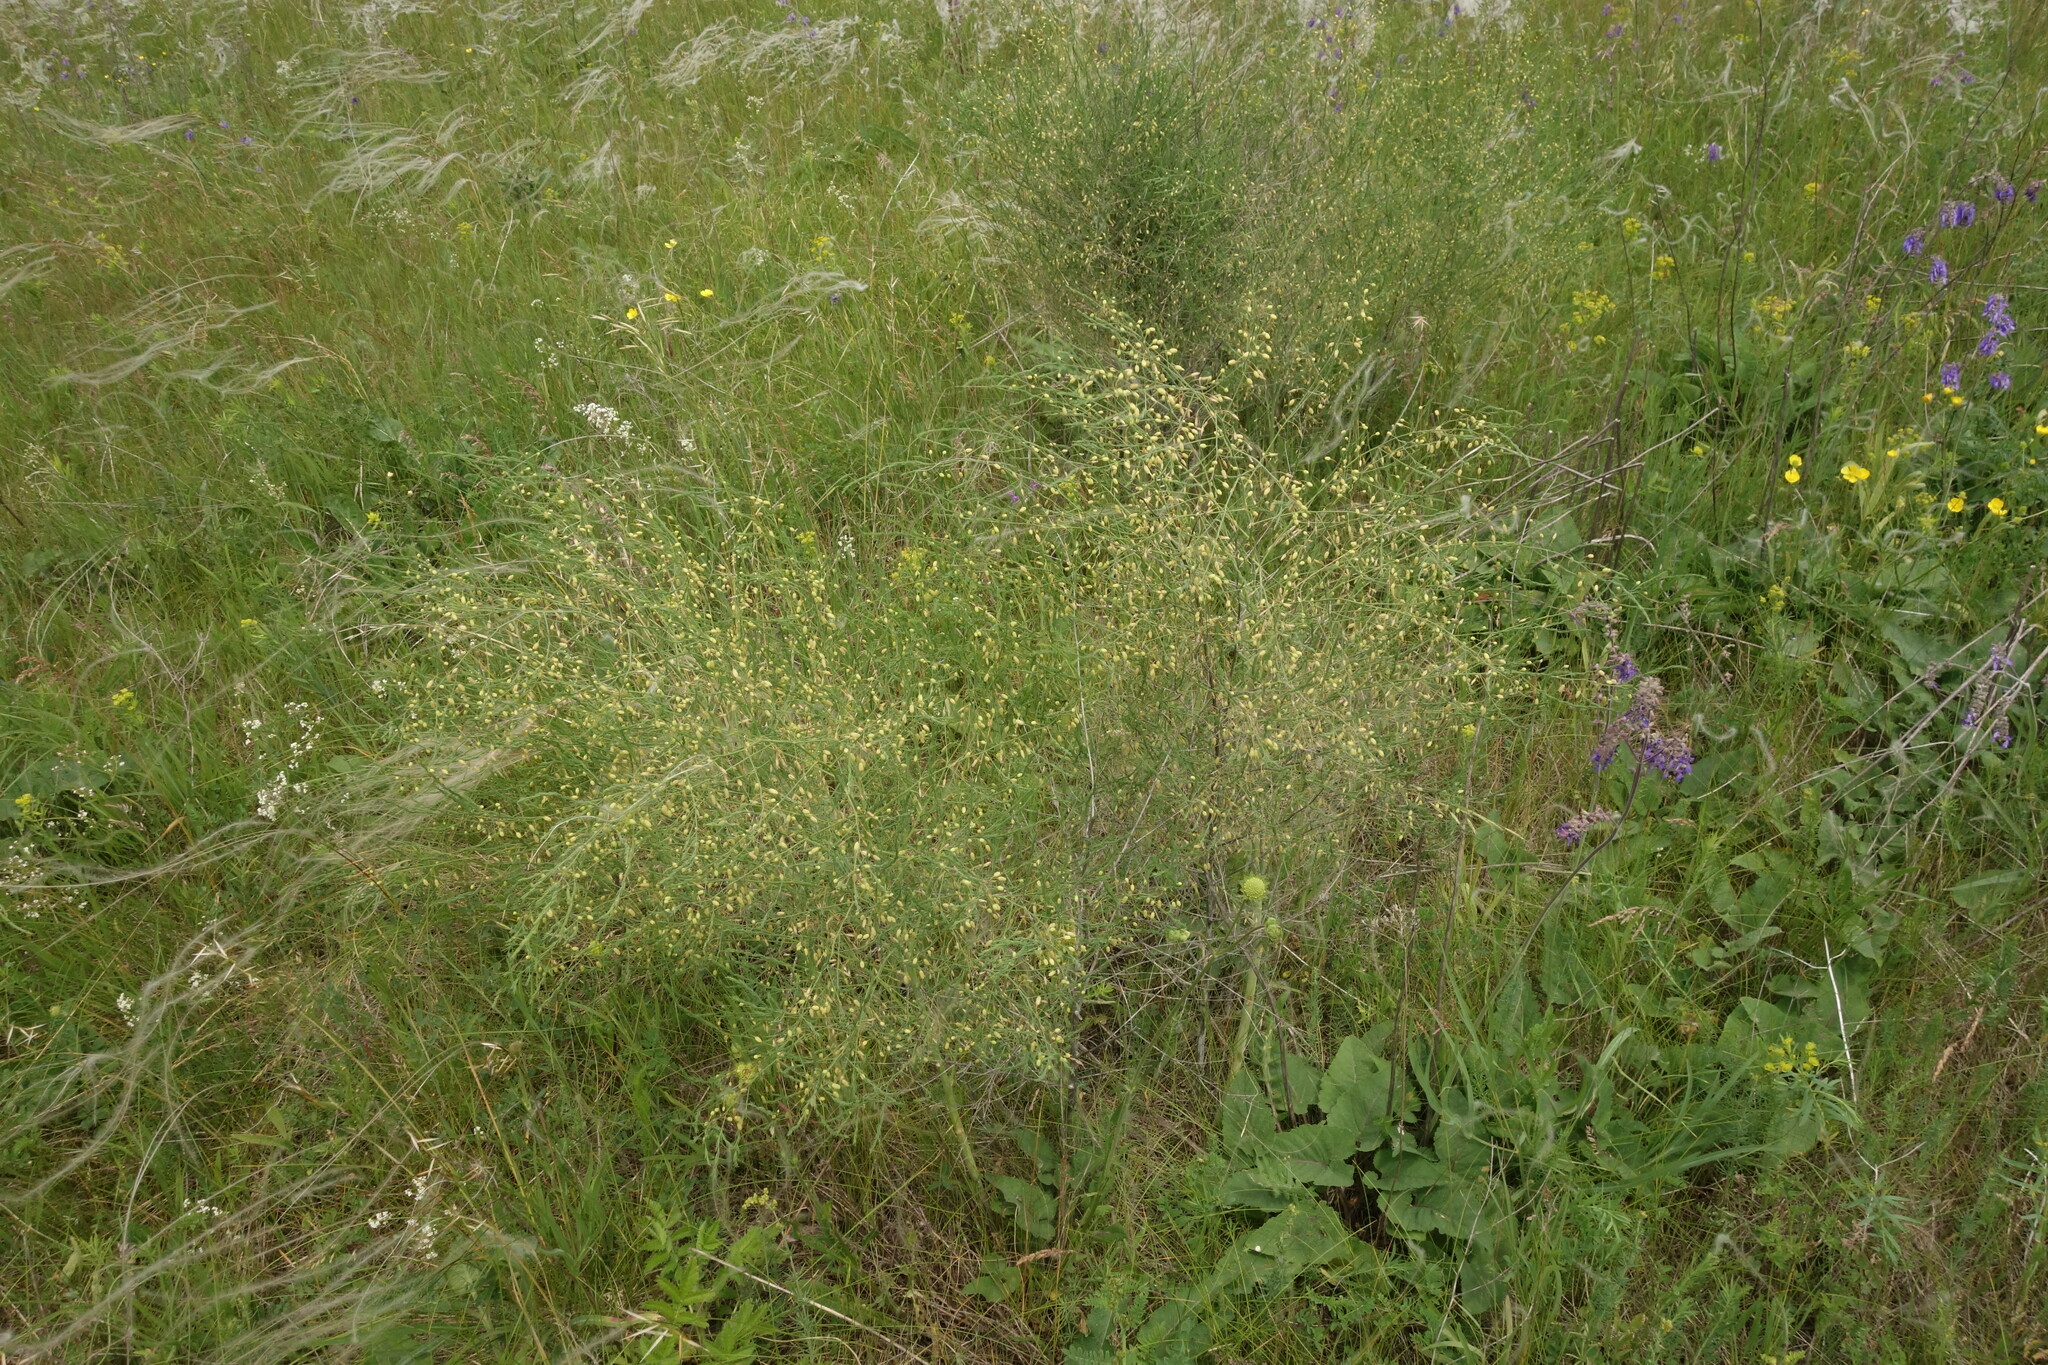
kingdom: Plantae
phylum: Tracheophyta
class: Liliopsida
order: Asparagales
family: Asparagaceae
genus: Asparagus
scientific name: Asparagus officinalis
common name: Garden asparagus
